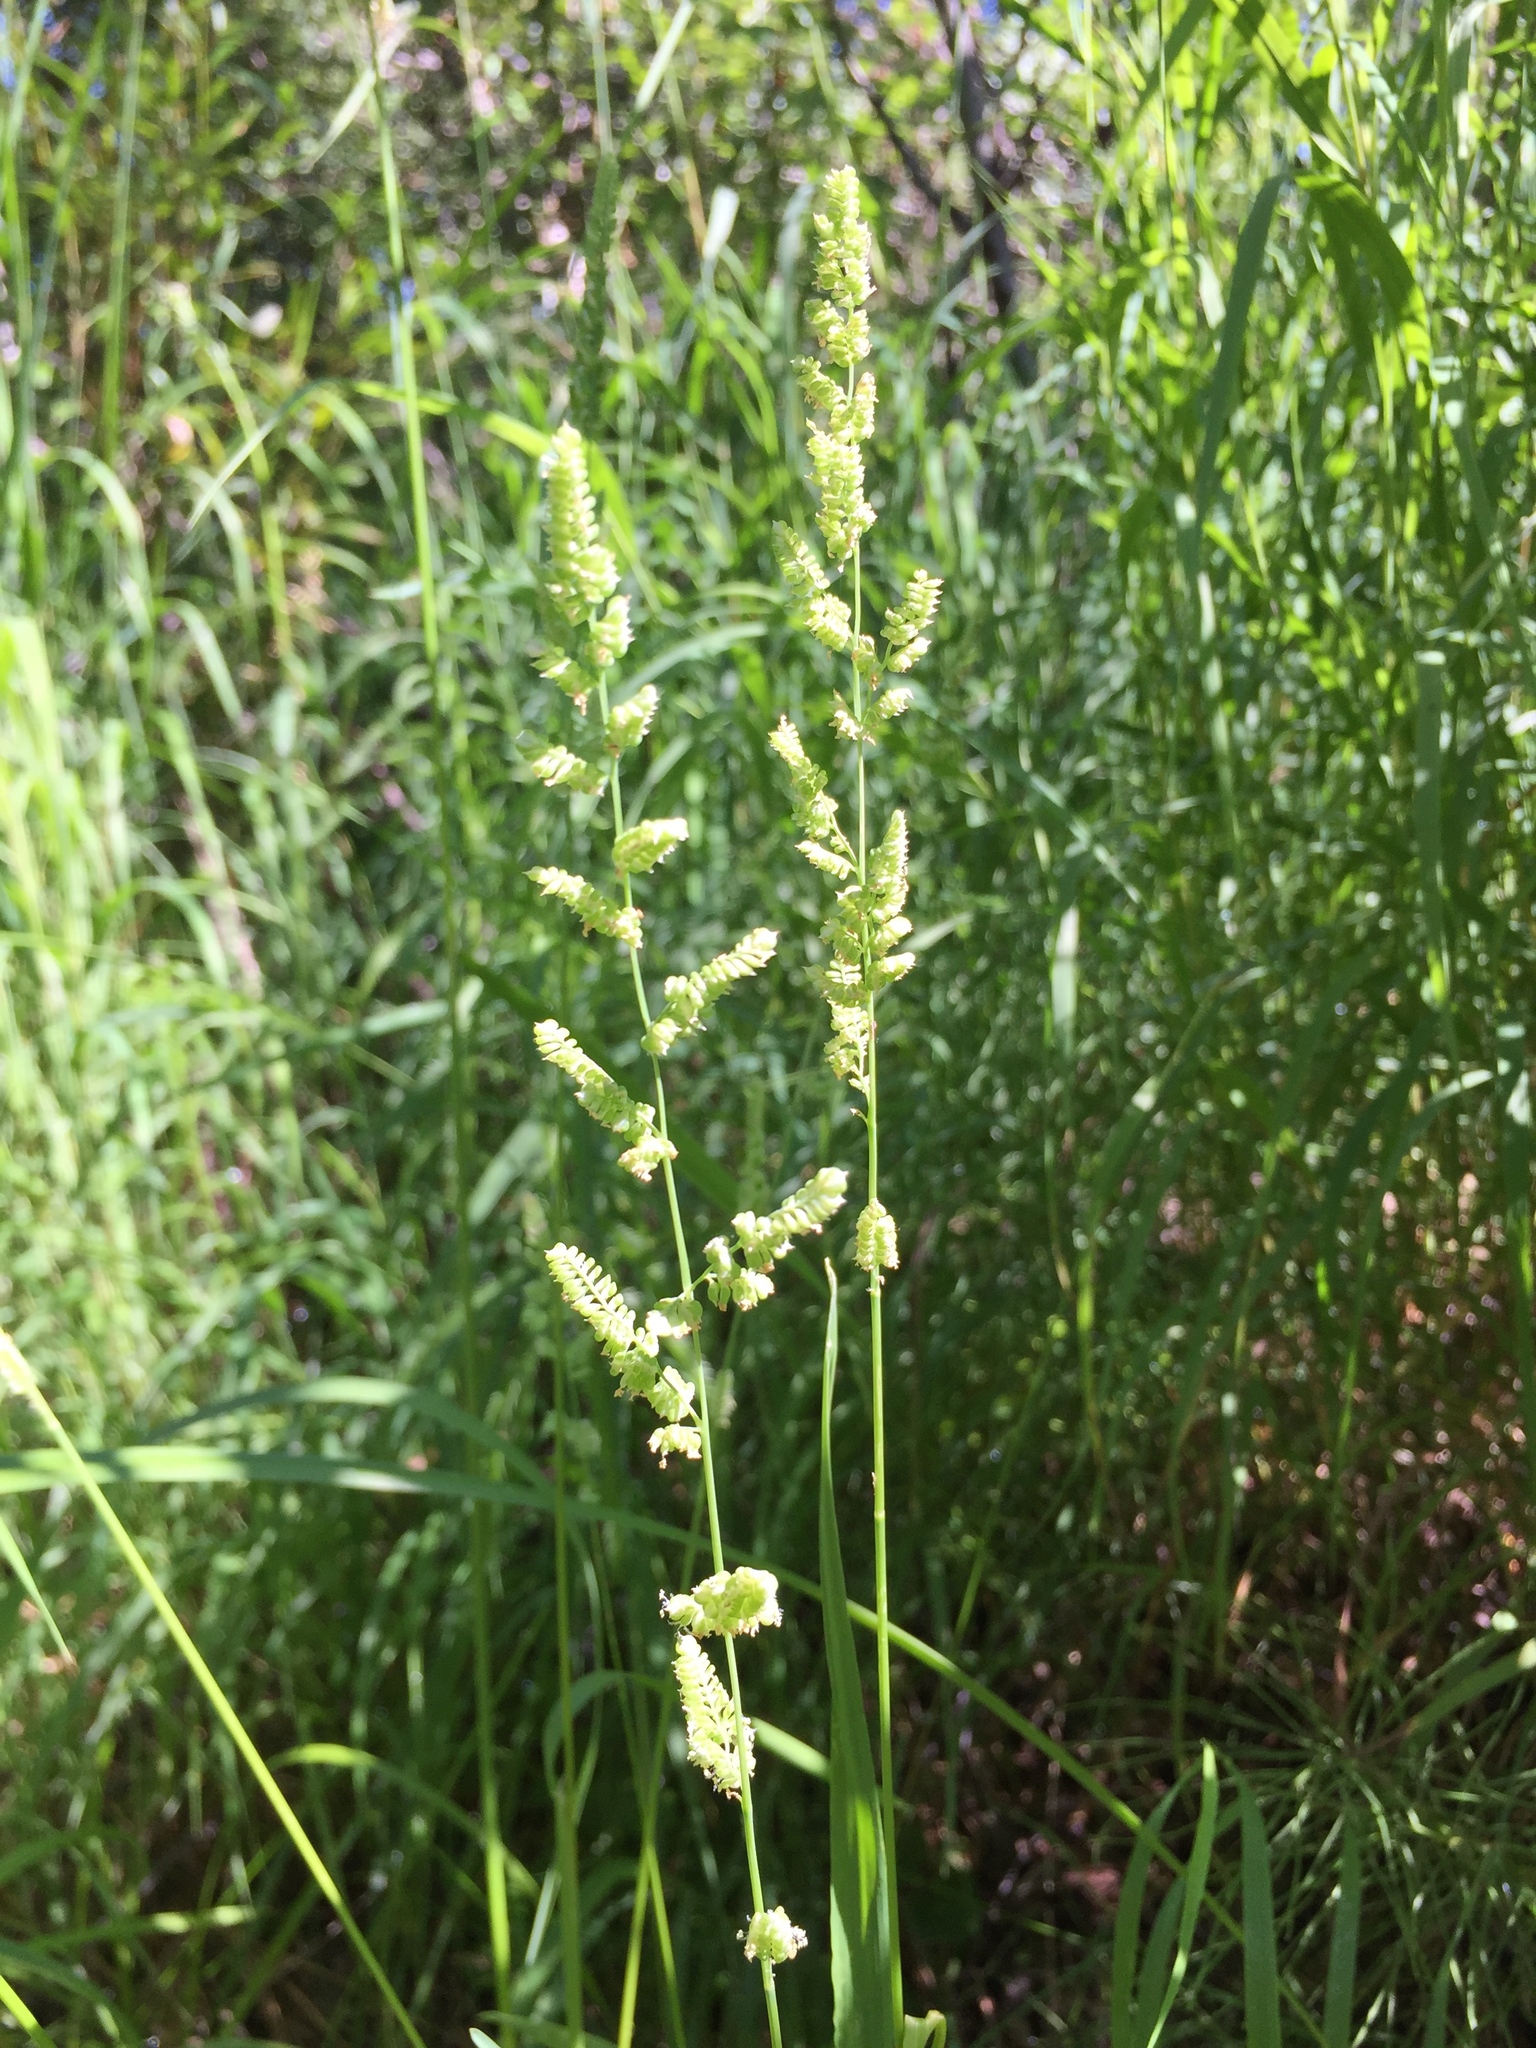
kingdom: Plantae
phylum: Tracheophyta
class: Liliopsida
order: Poales
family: Poaceae
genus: Beckmannia
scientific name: Beckmannia syzigachne
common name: American slough-grass
